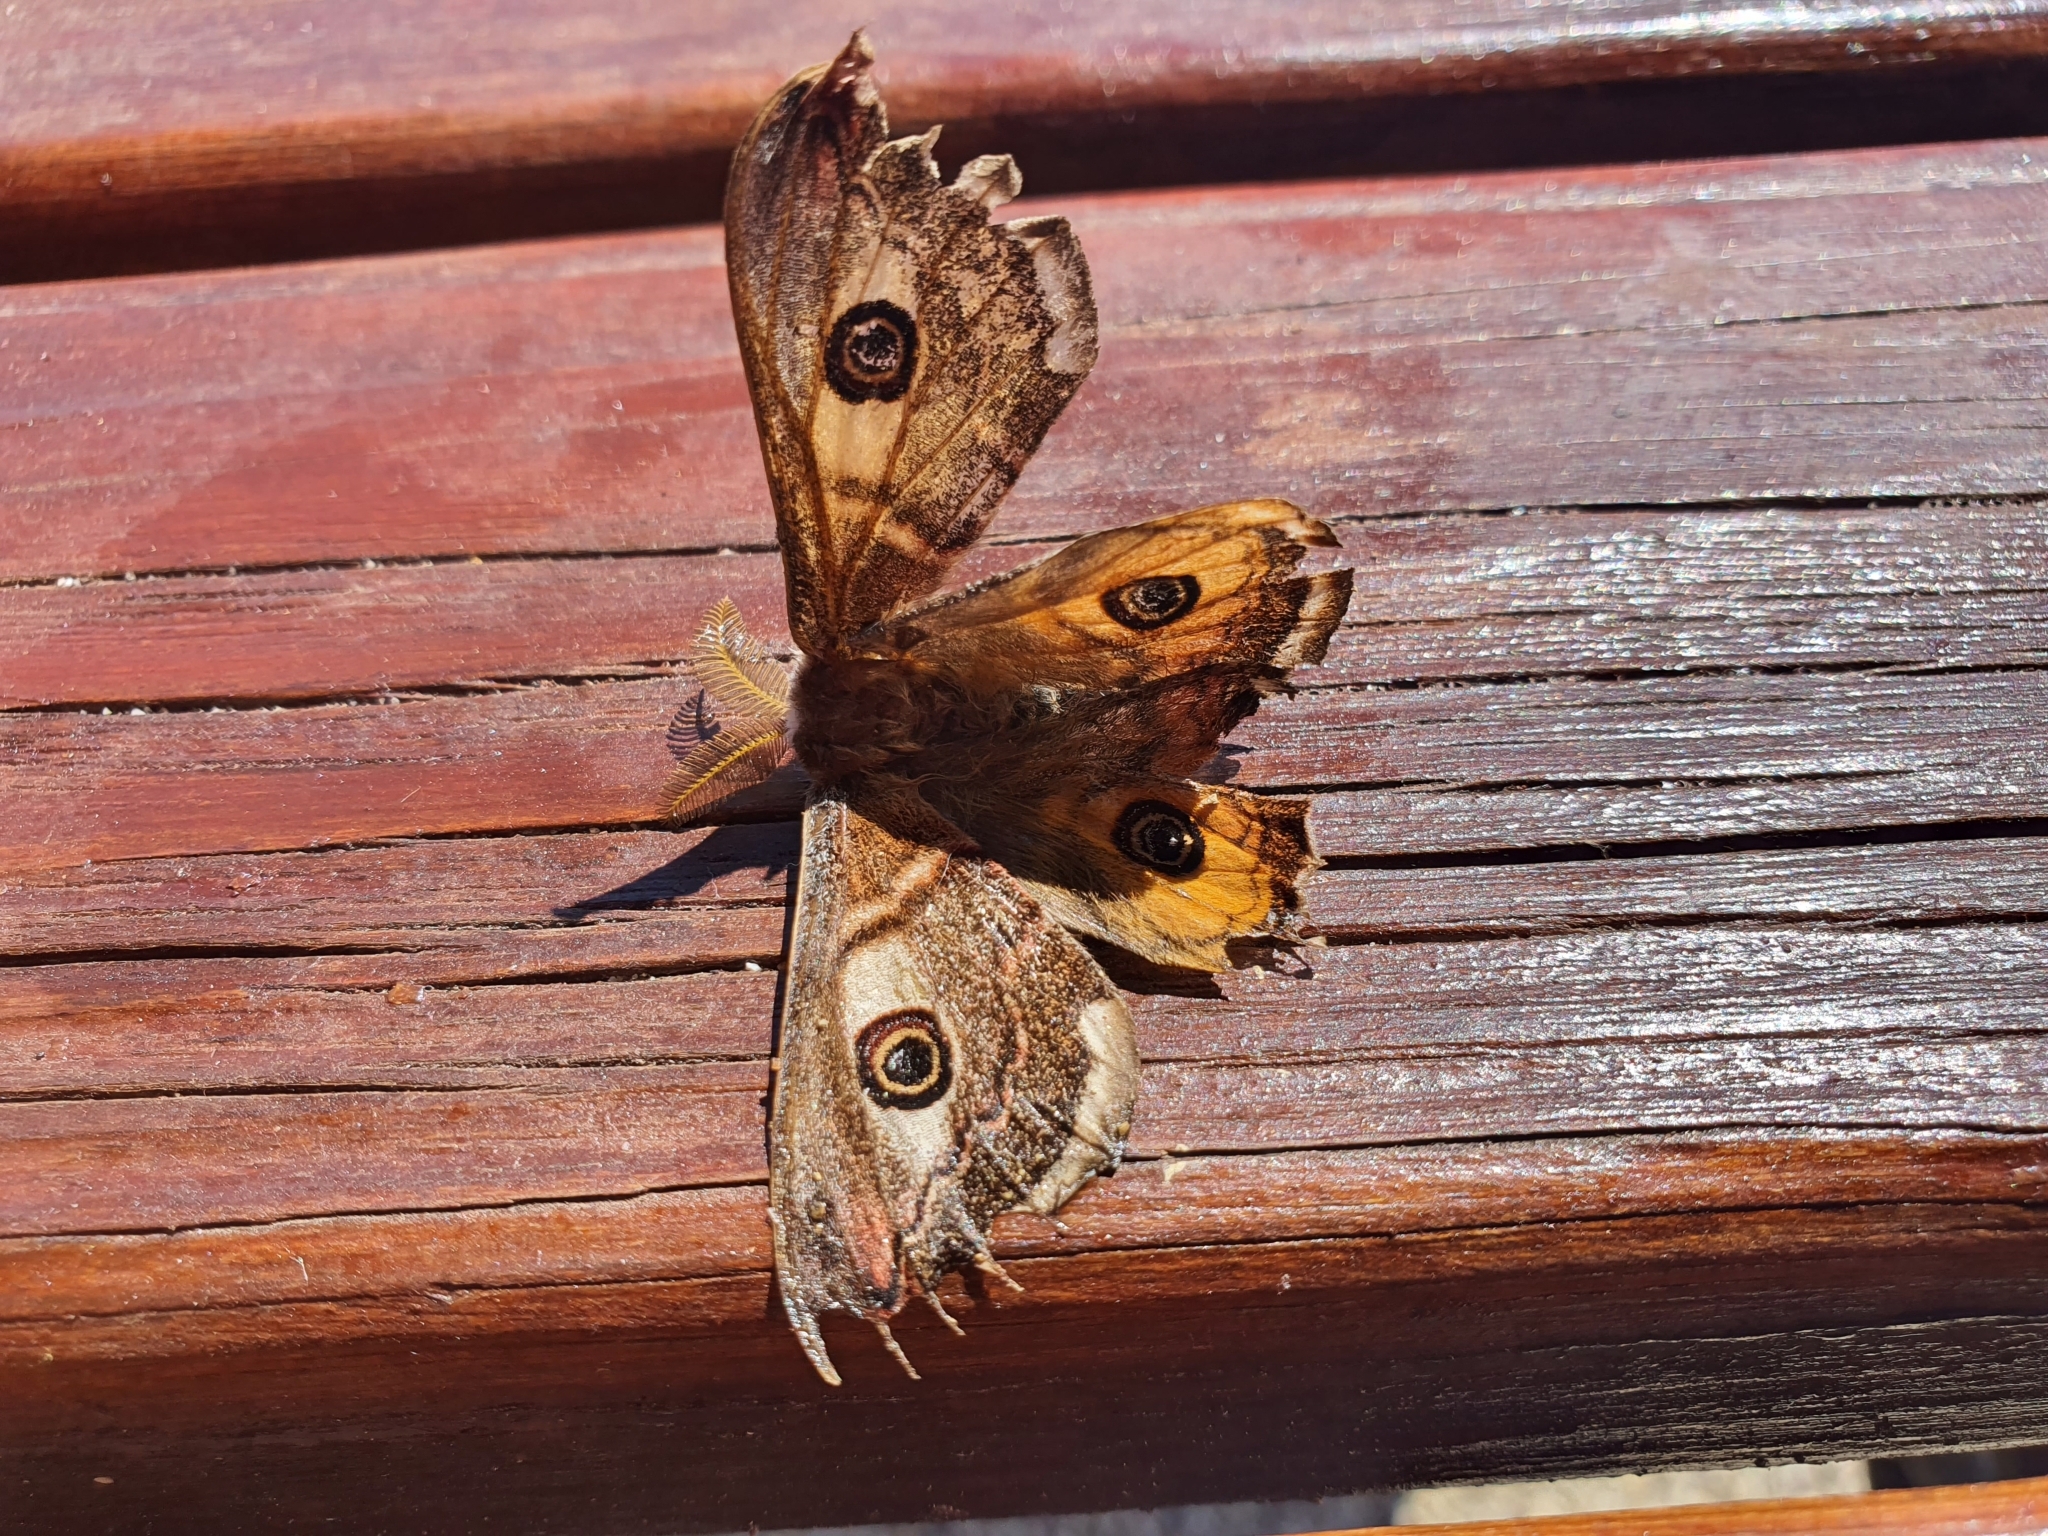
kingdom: Animalia
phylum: Arthropoda
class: Insecta
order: Lepidoptera
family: Saturniidae
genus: Saturnia
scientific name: Saturnia pavoniella
